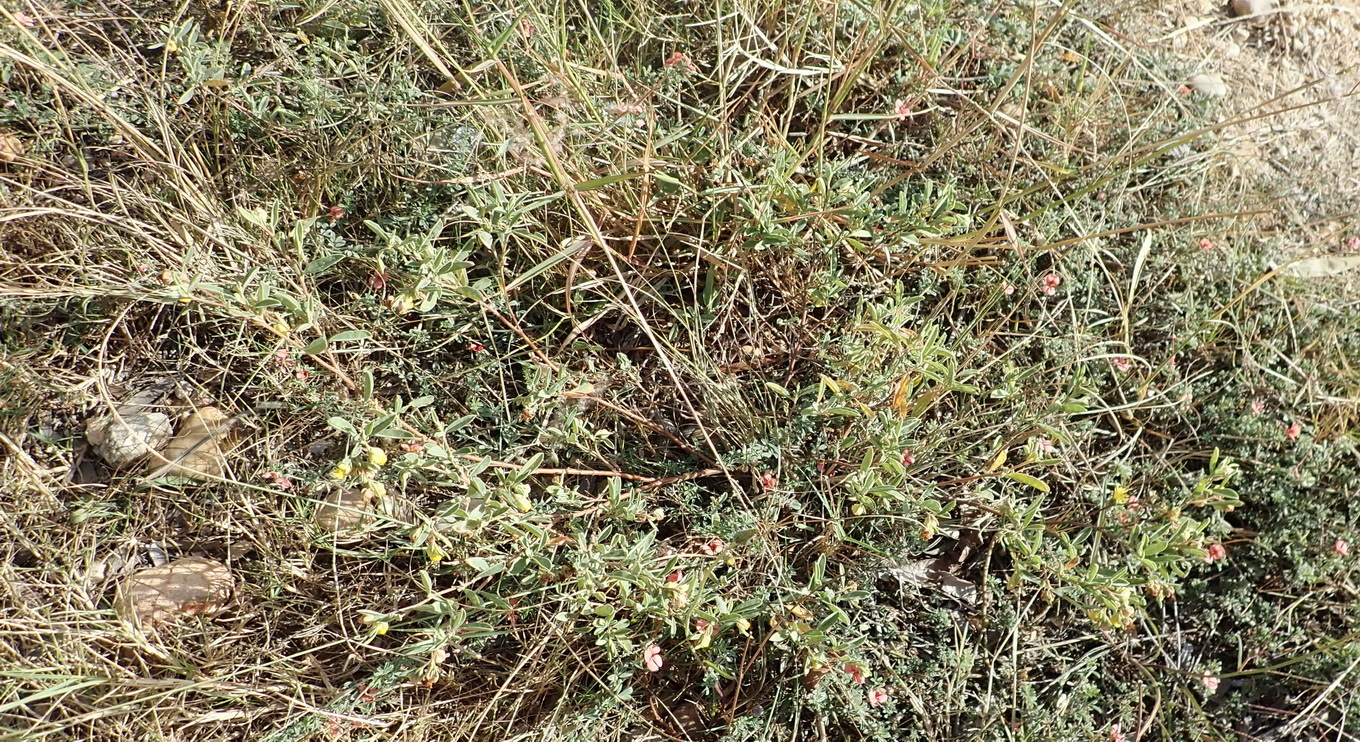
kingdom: Plantae
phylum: Tracheophyta
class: Magnoliopsida
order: Malvales
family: Malvaceae
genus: Hermannia
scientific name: Hermannia lavandulifolia
